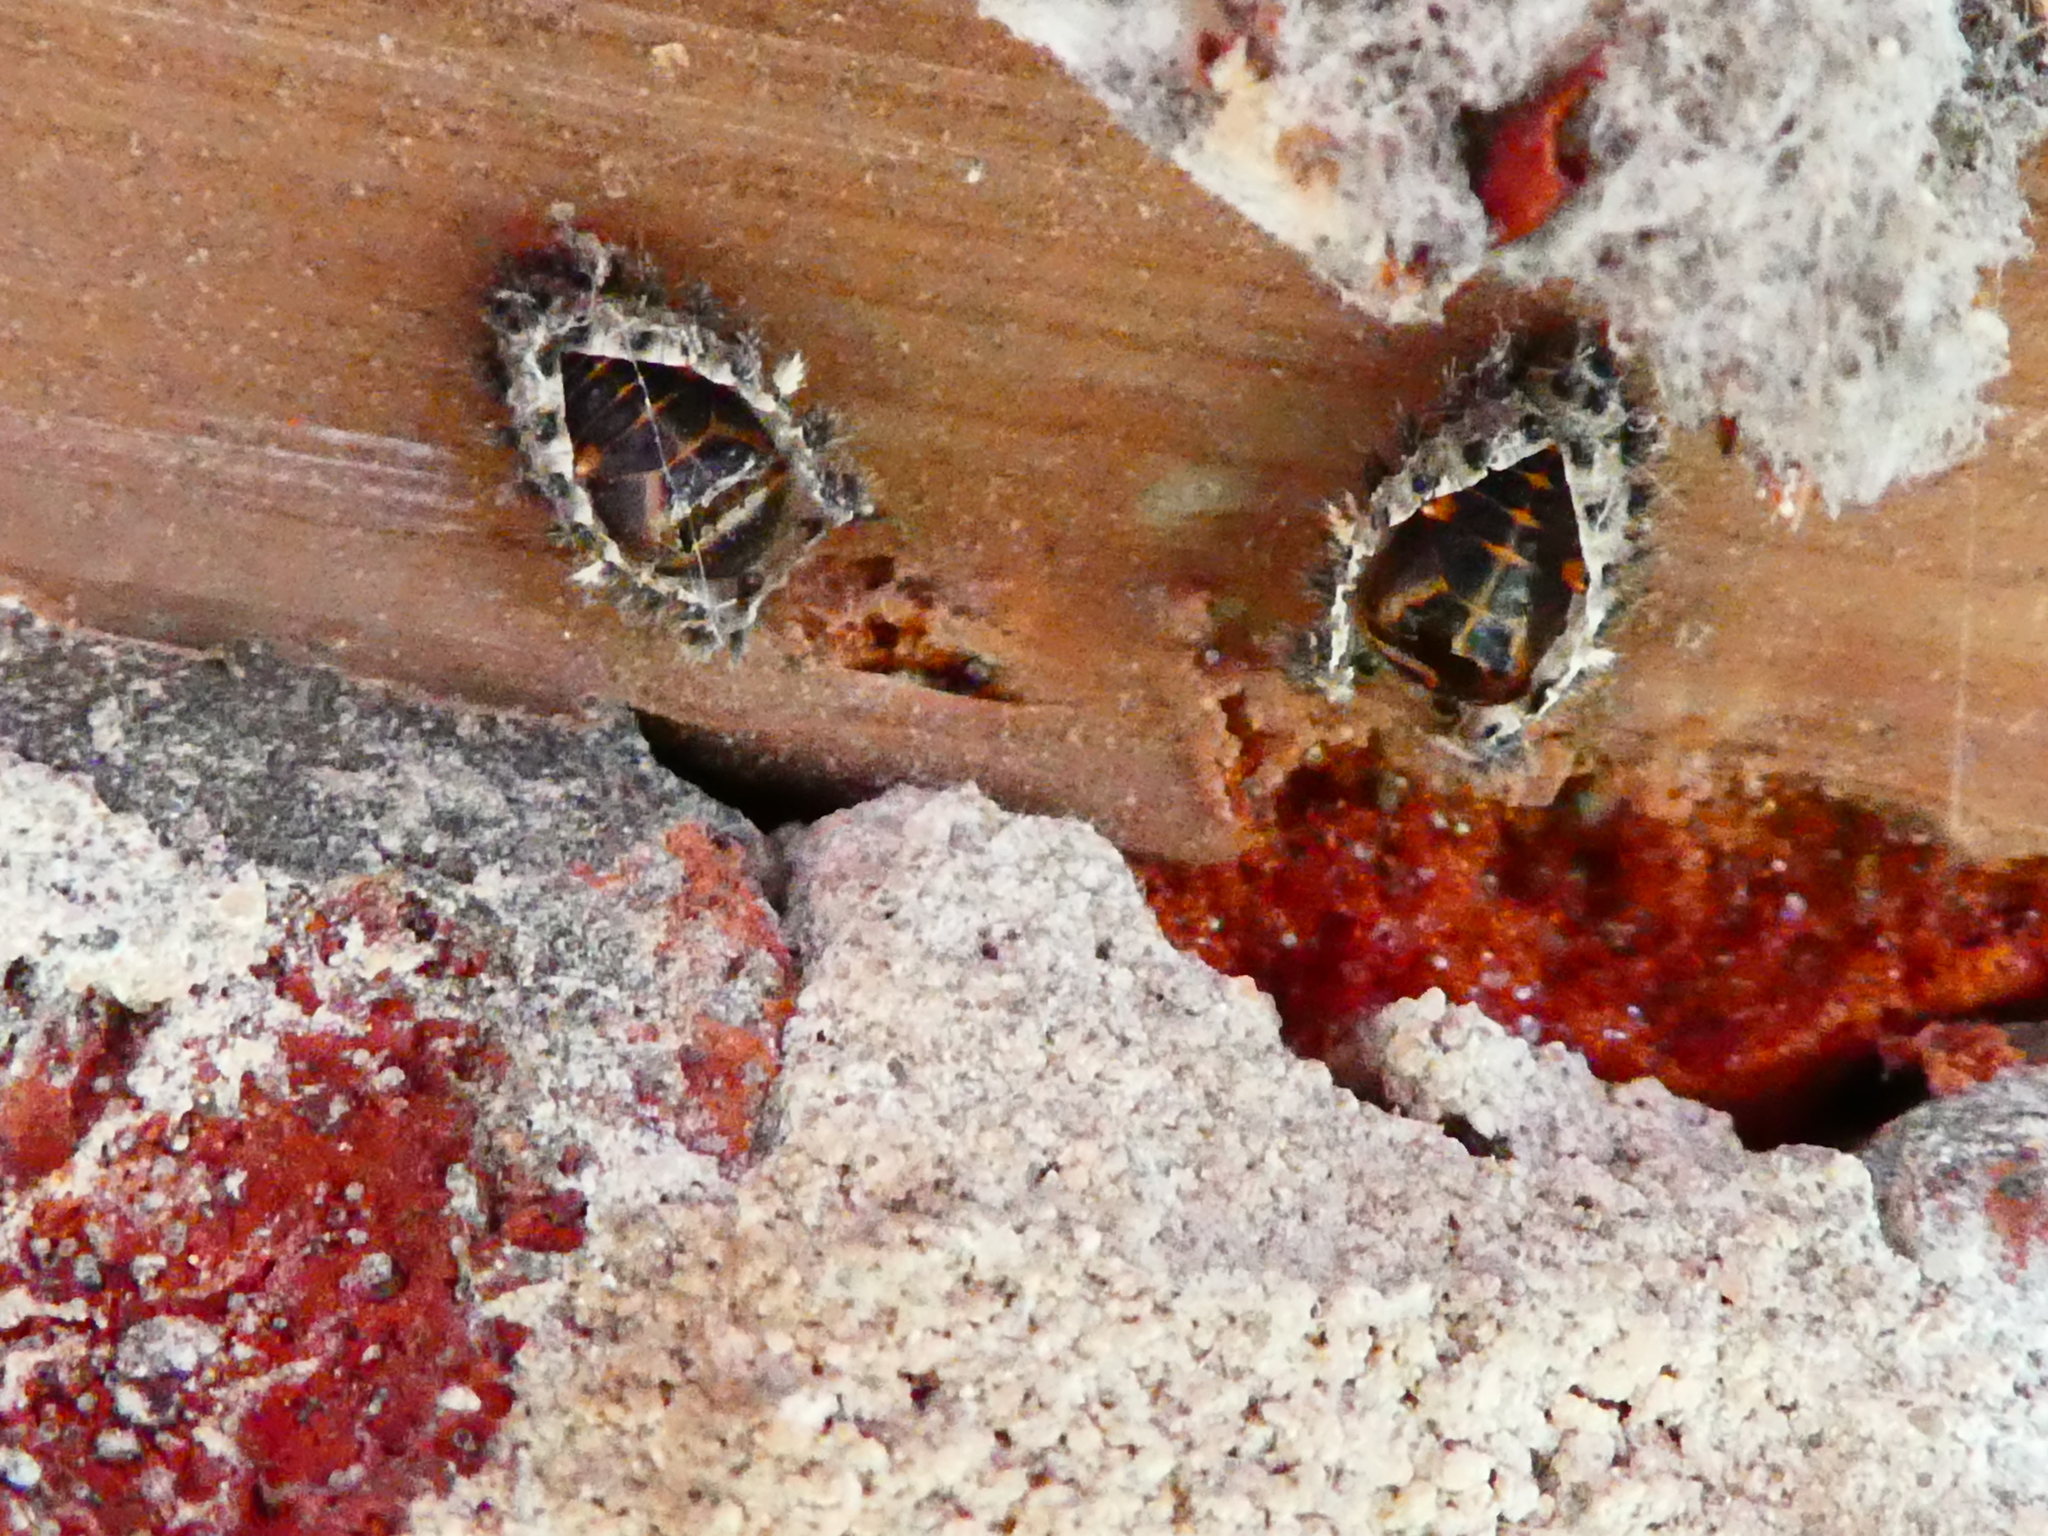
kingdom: Animalia
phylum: Arthropoda
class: Insecta
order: Coleoptera
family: Coccinellidae
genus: Brumus
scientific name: Brumus quadripustulatus
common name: Ladybird beetle
